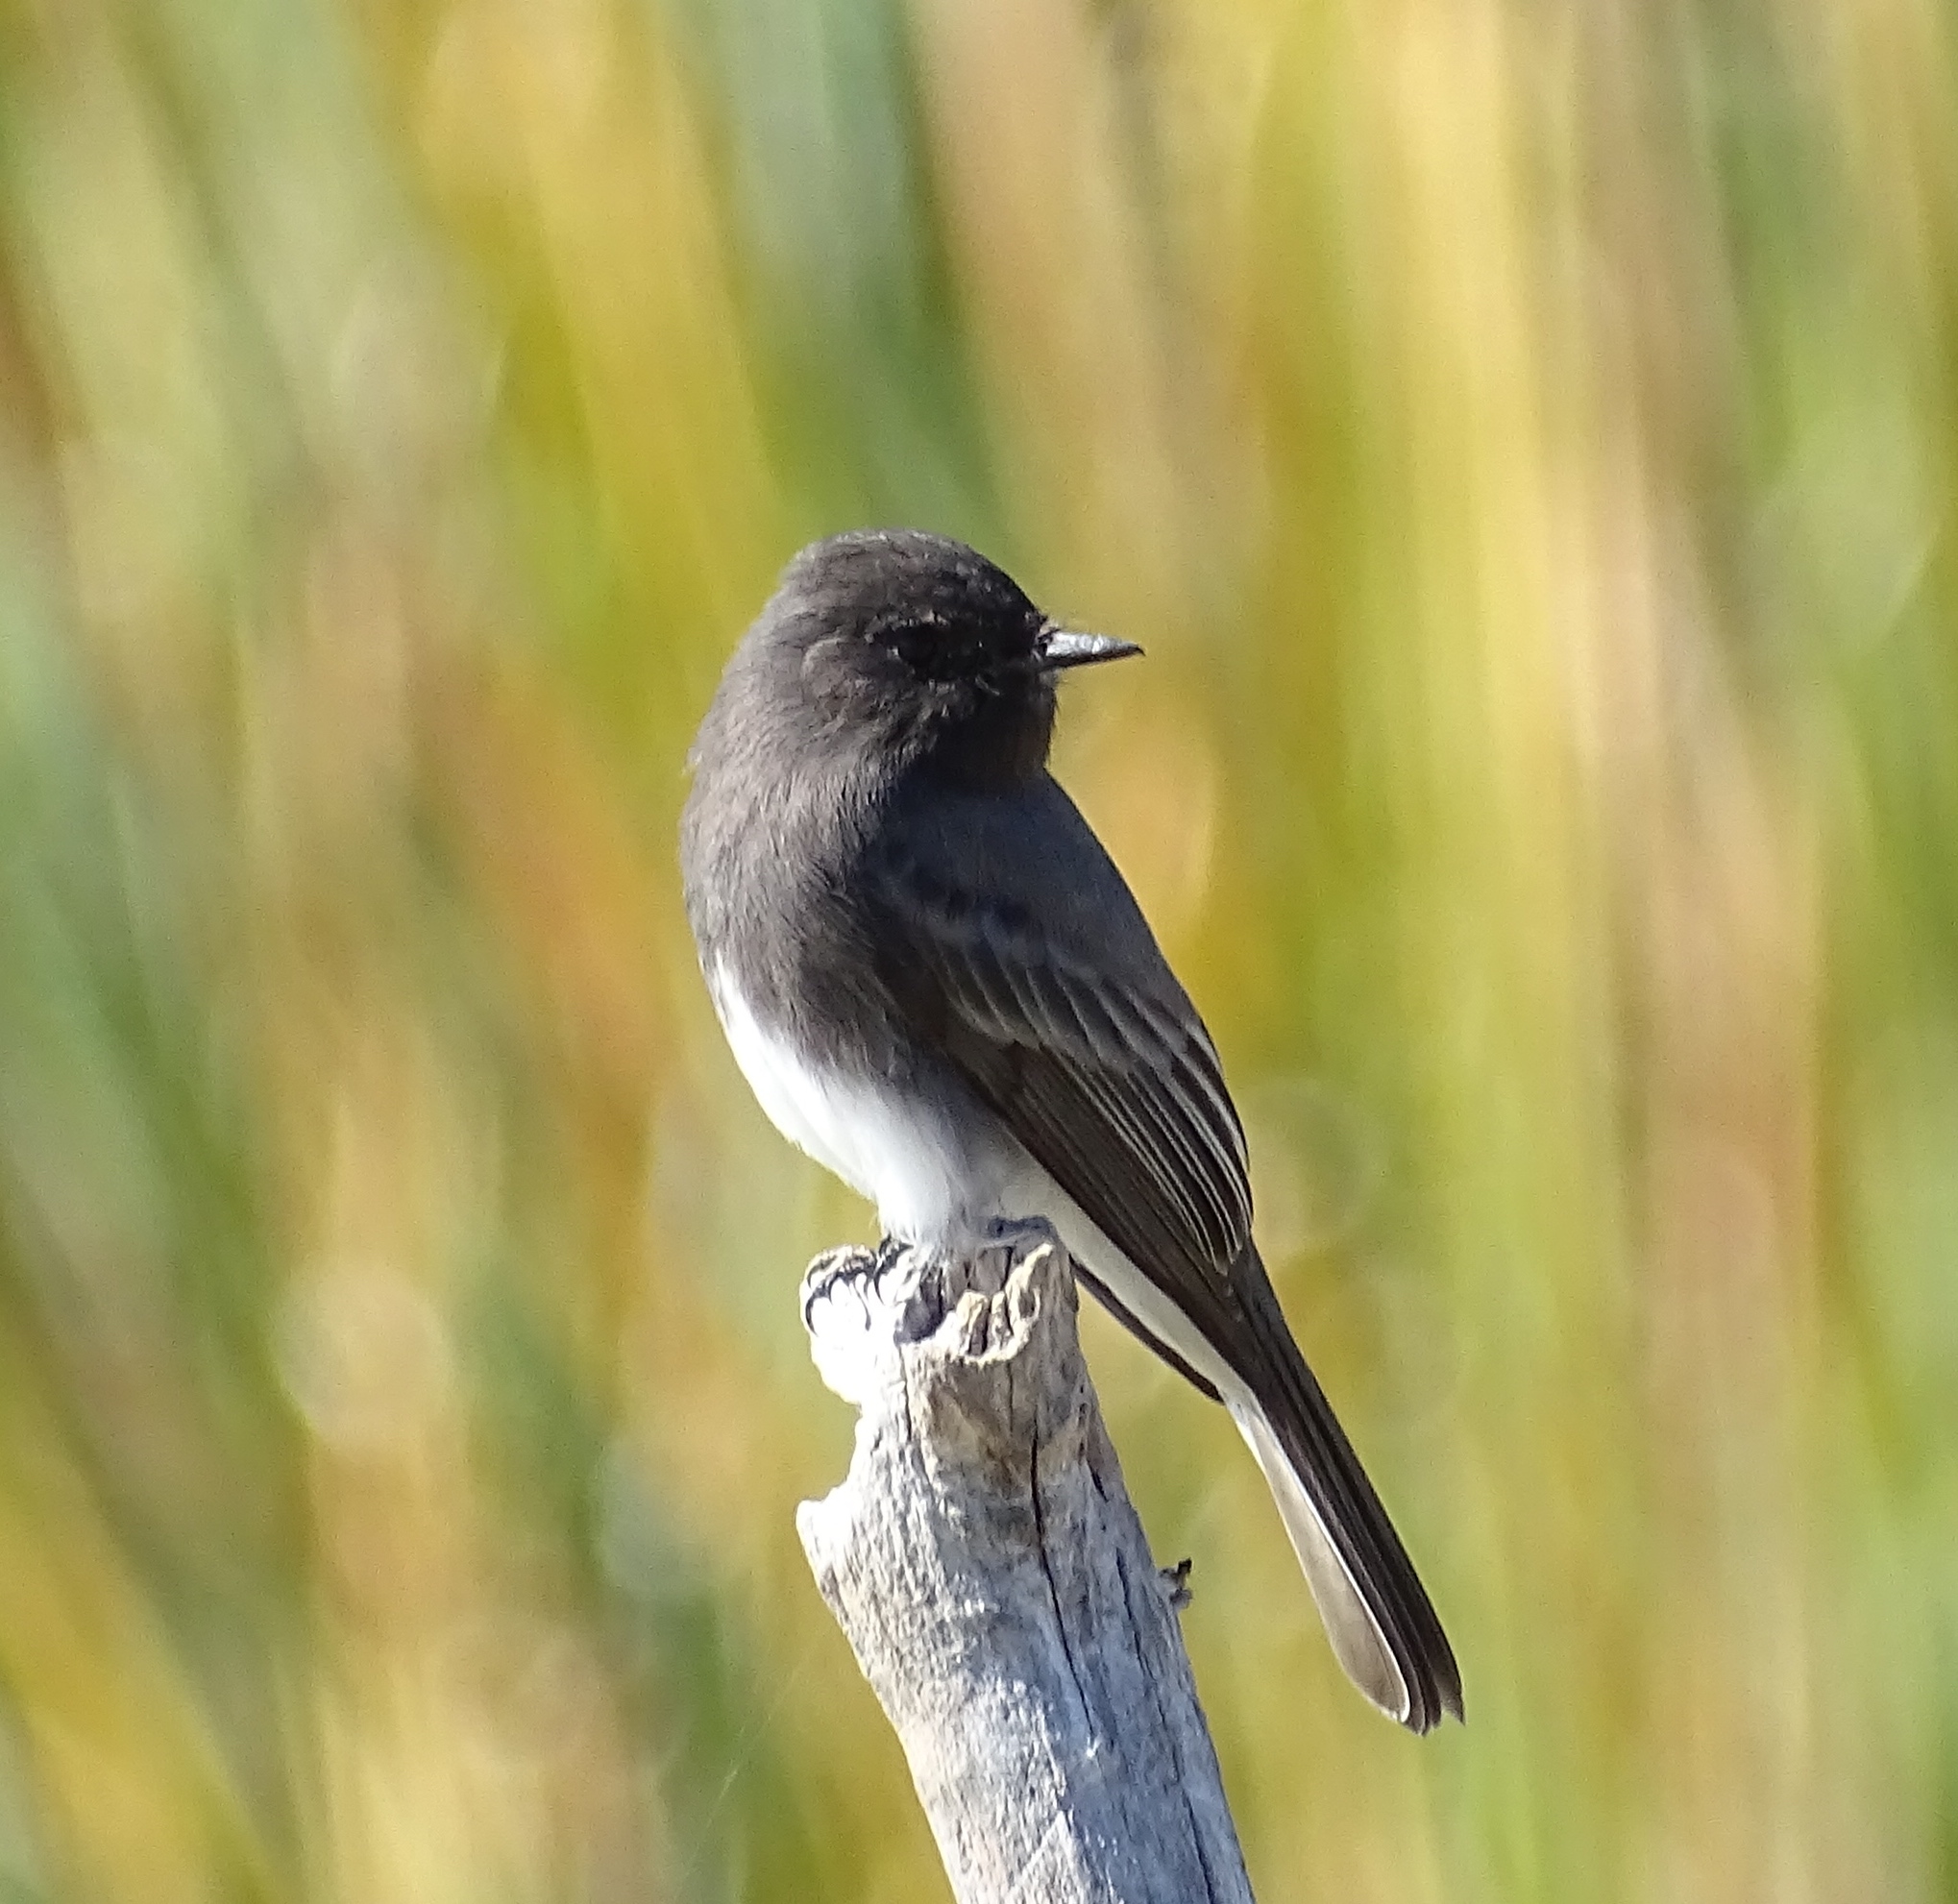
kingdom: Animalia
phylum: Chordata
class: Aves
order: Passeriformes
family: Tyrannidae
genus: Sayornis
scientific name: Sayornis nigricans
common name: Black phoebe
